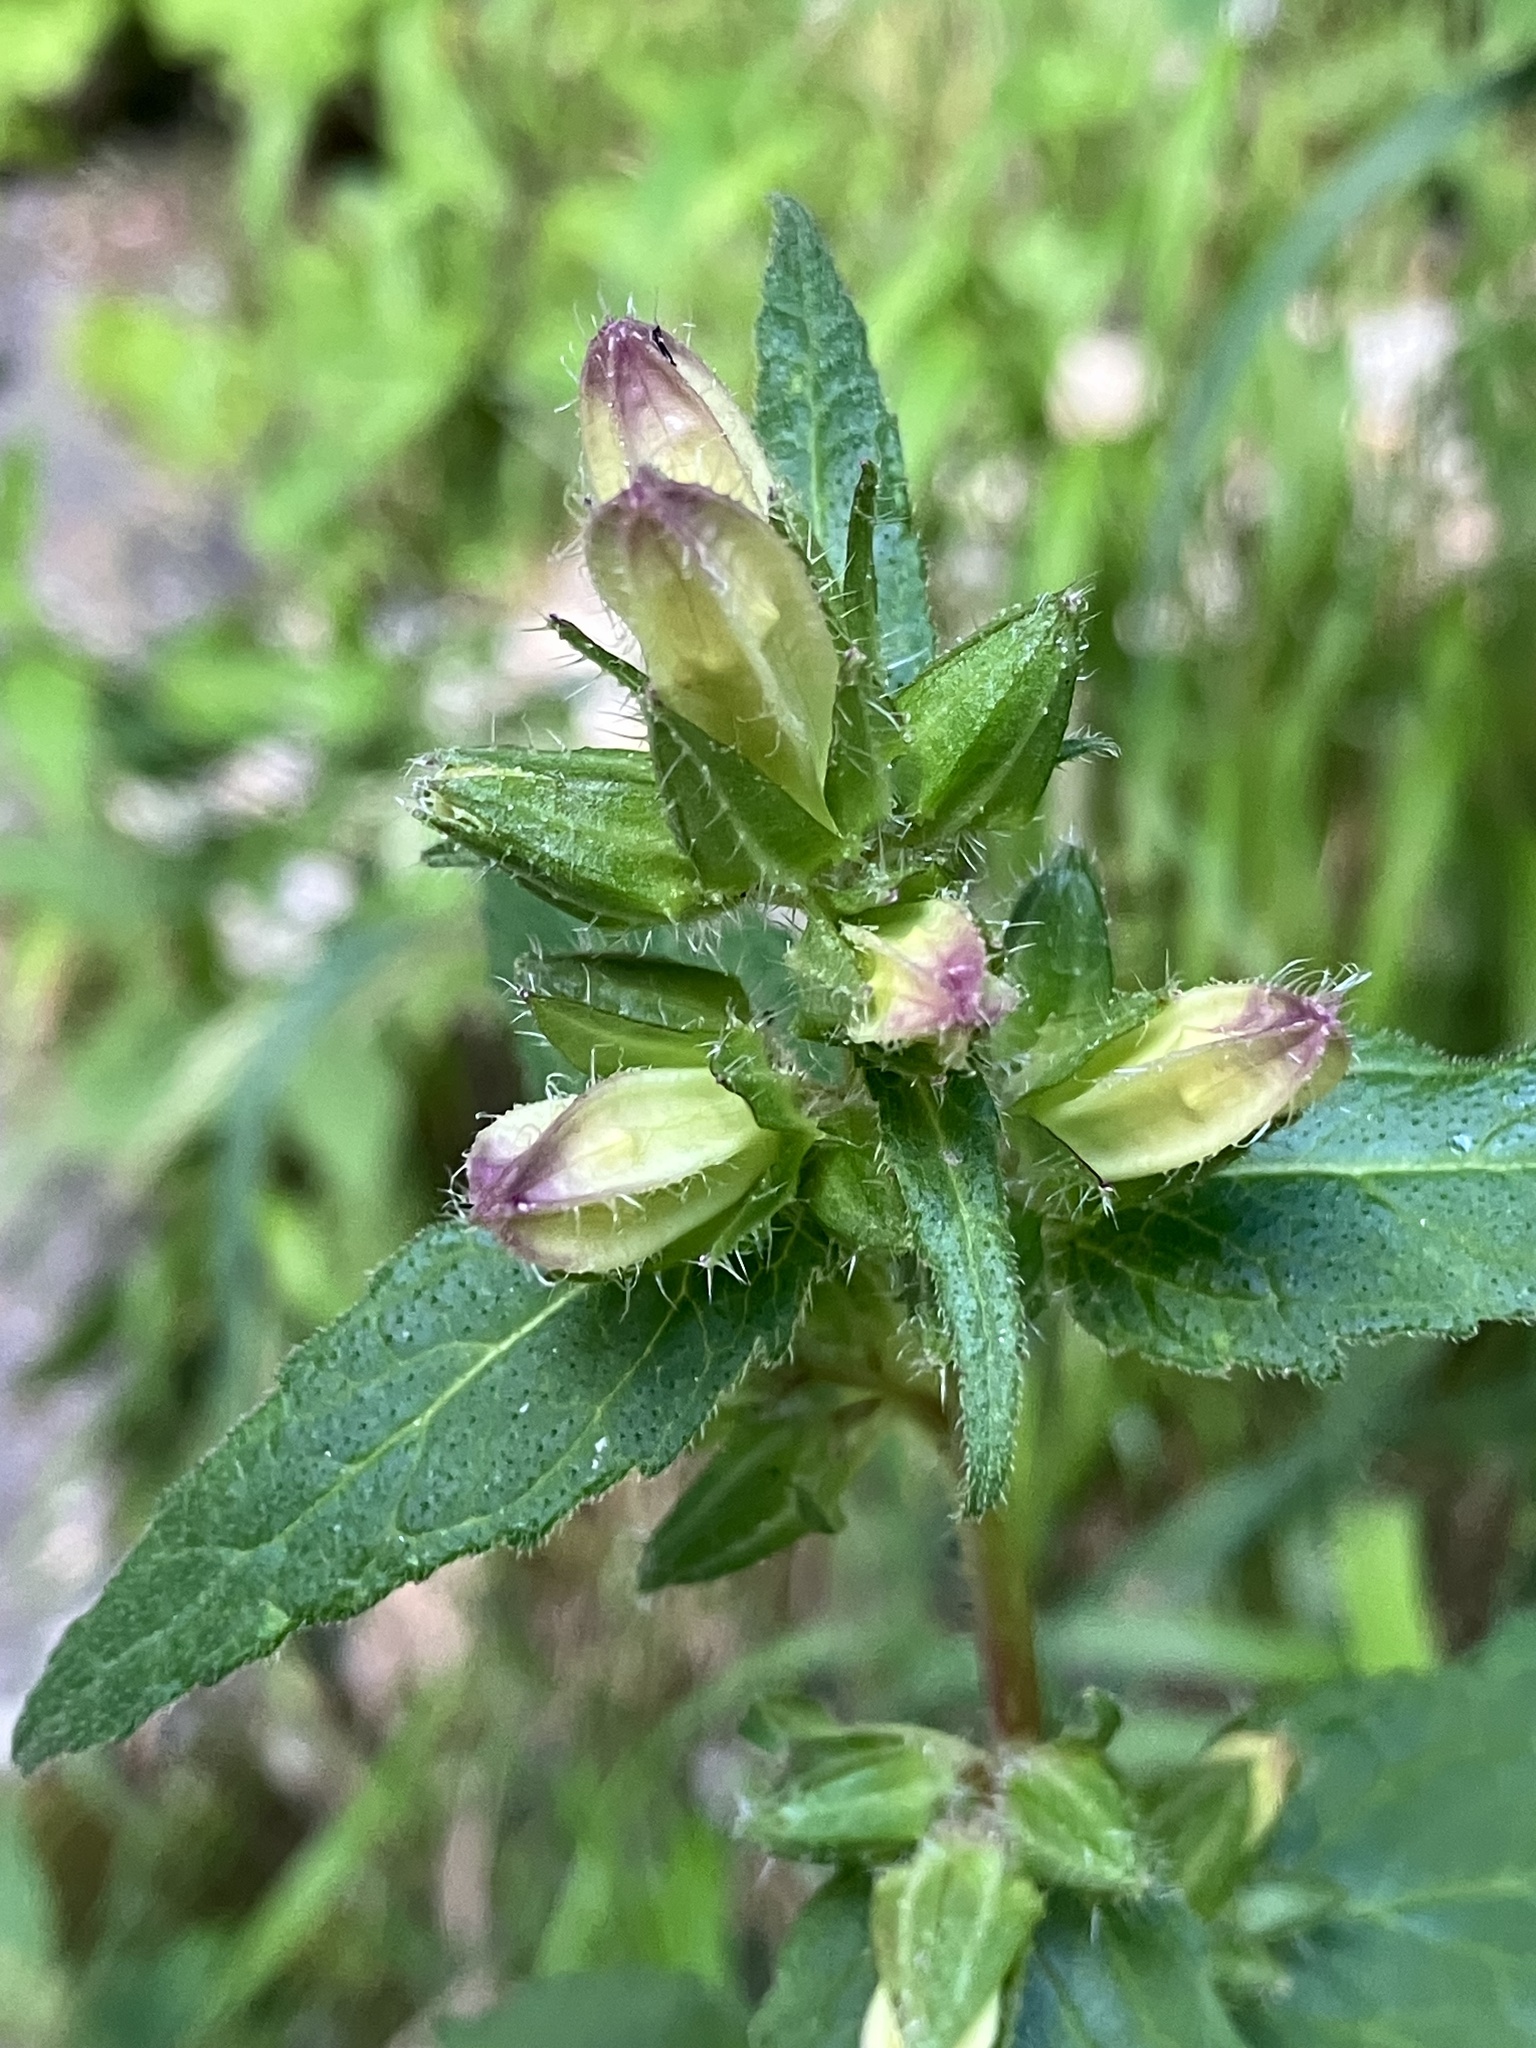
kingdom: Plantae
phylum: Tracheophyta
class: Magnoliopsida
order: Asterales
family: Campanulaceae
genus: Campanula
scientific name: Campanula trachelium
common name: Nettle-leaved bellflower
